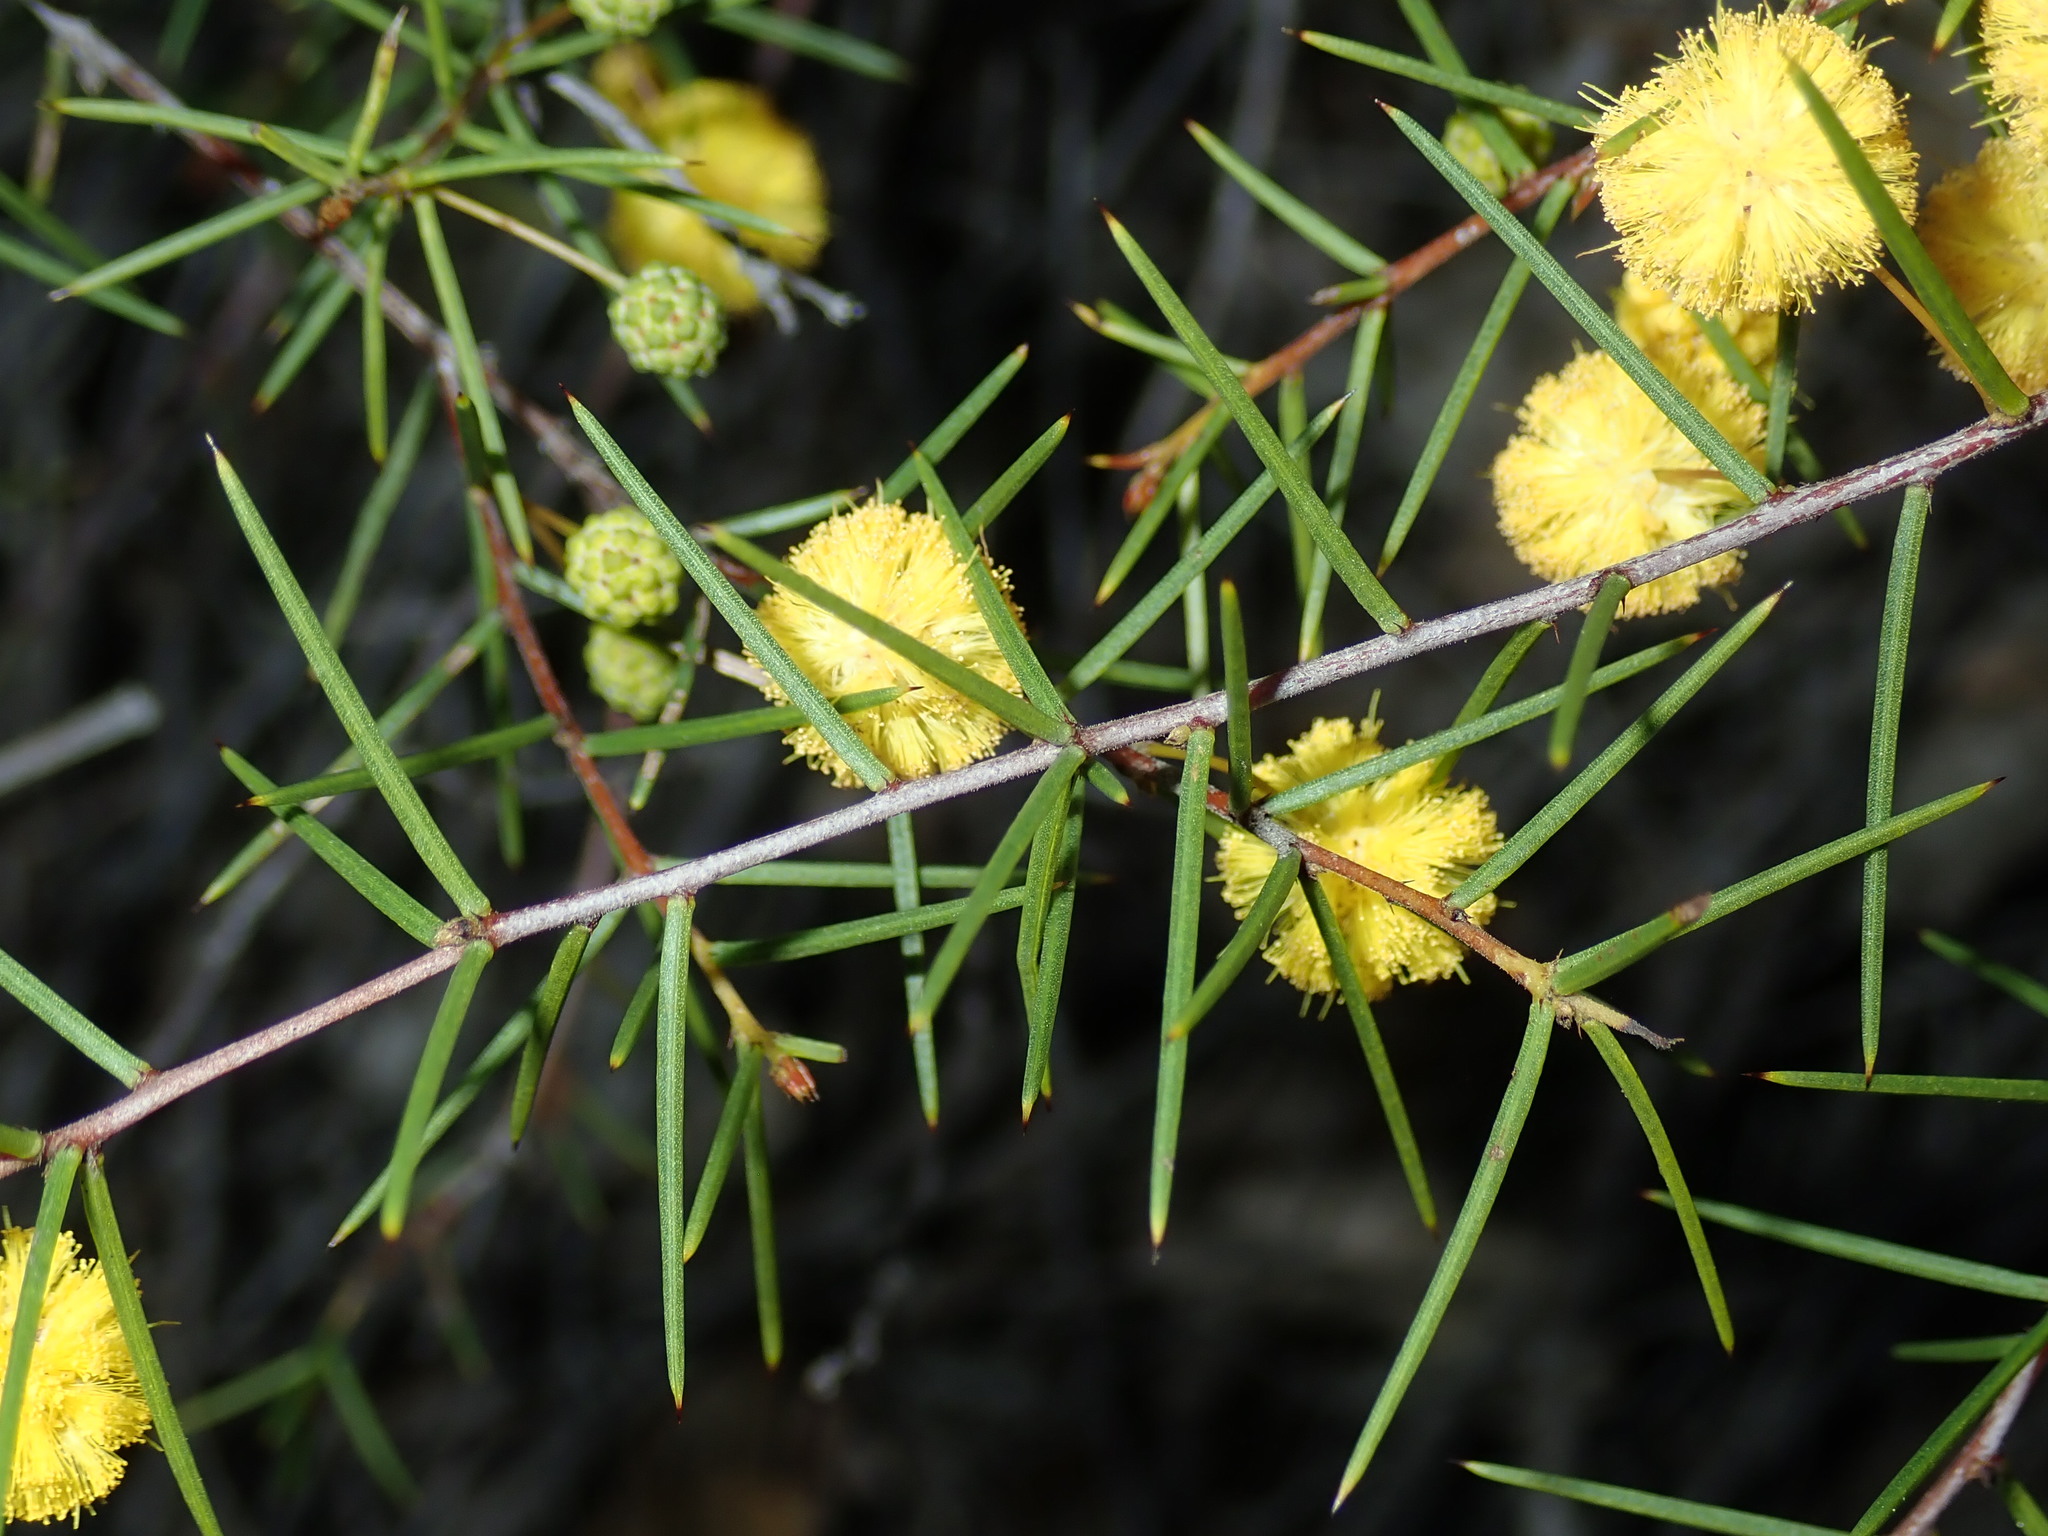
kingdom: Plantae
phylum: Tracheophyta
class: Magnoliopsida
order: Fabales
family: Fabaceae
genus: Acacia
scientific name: Acacia brownii
